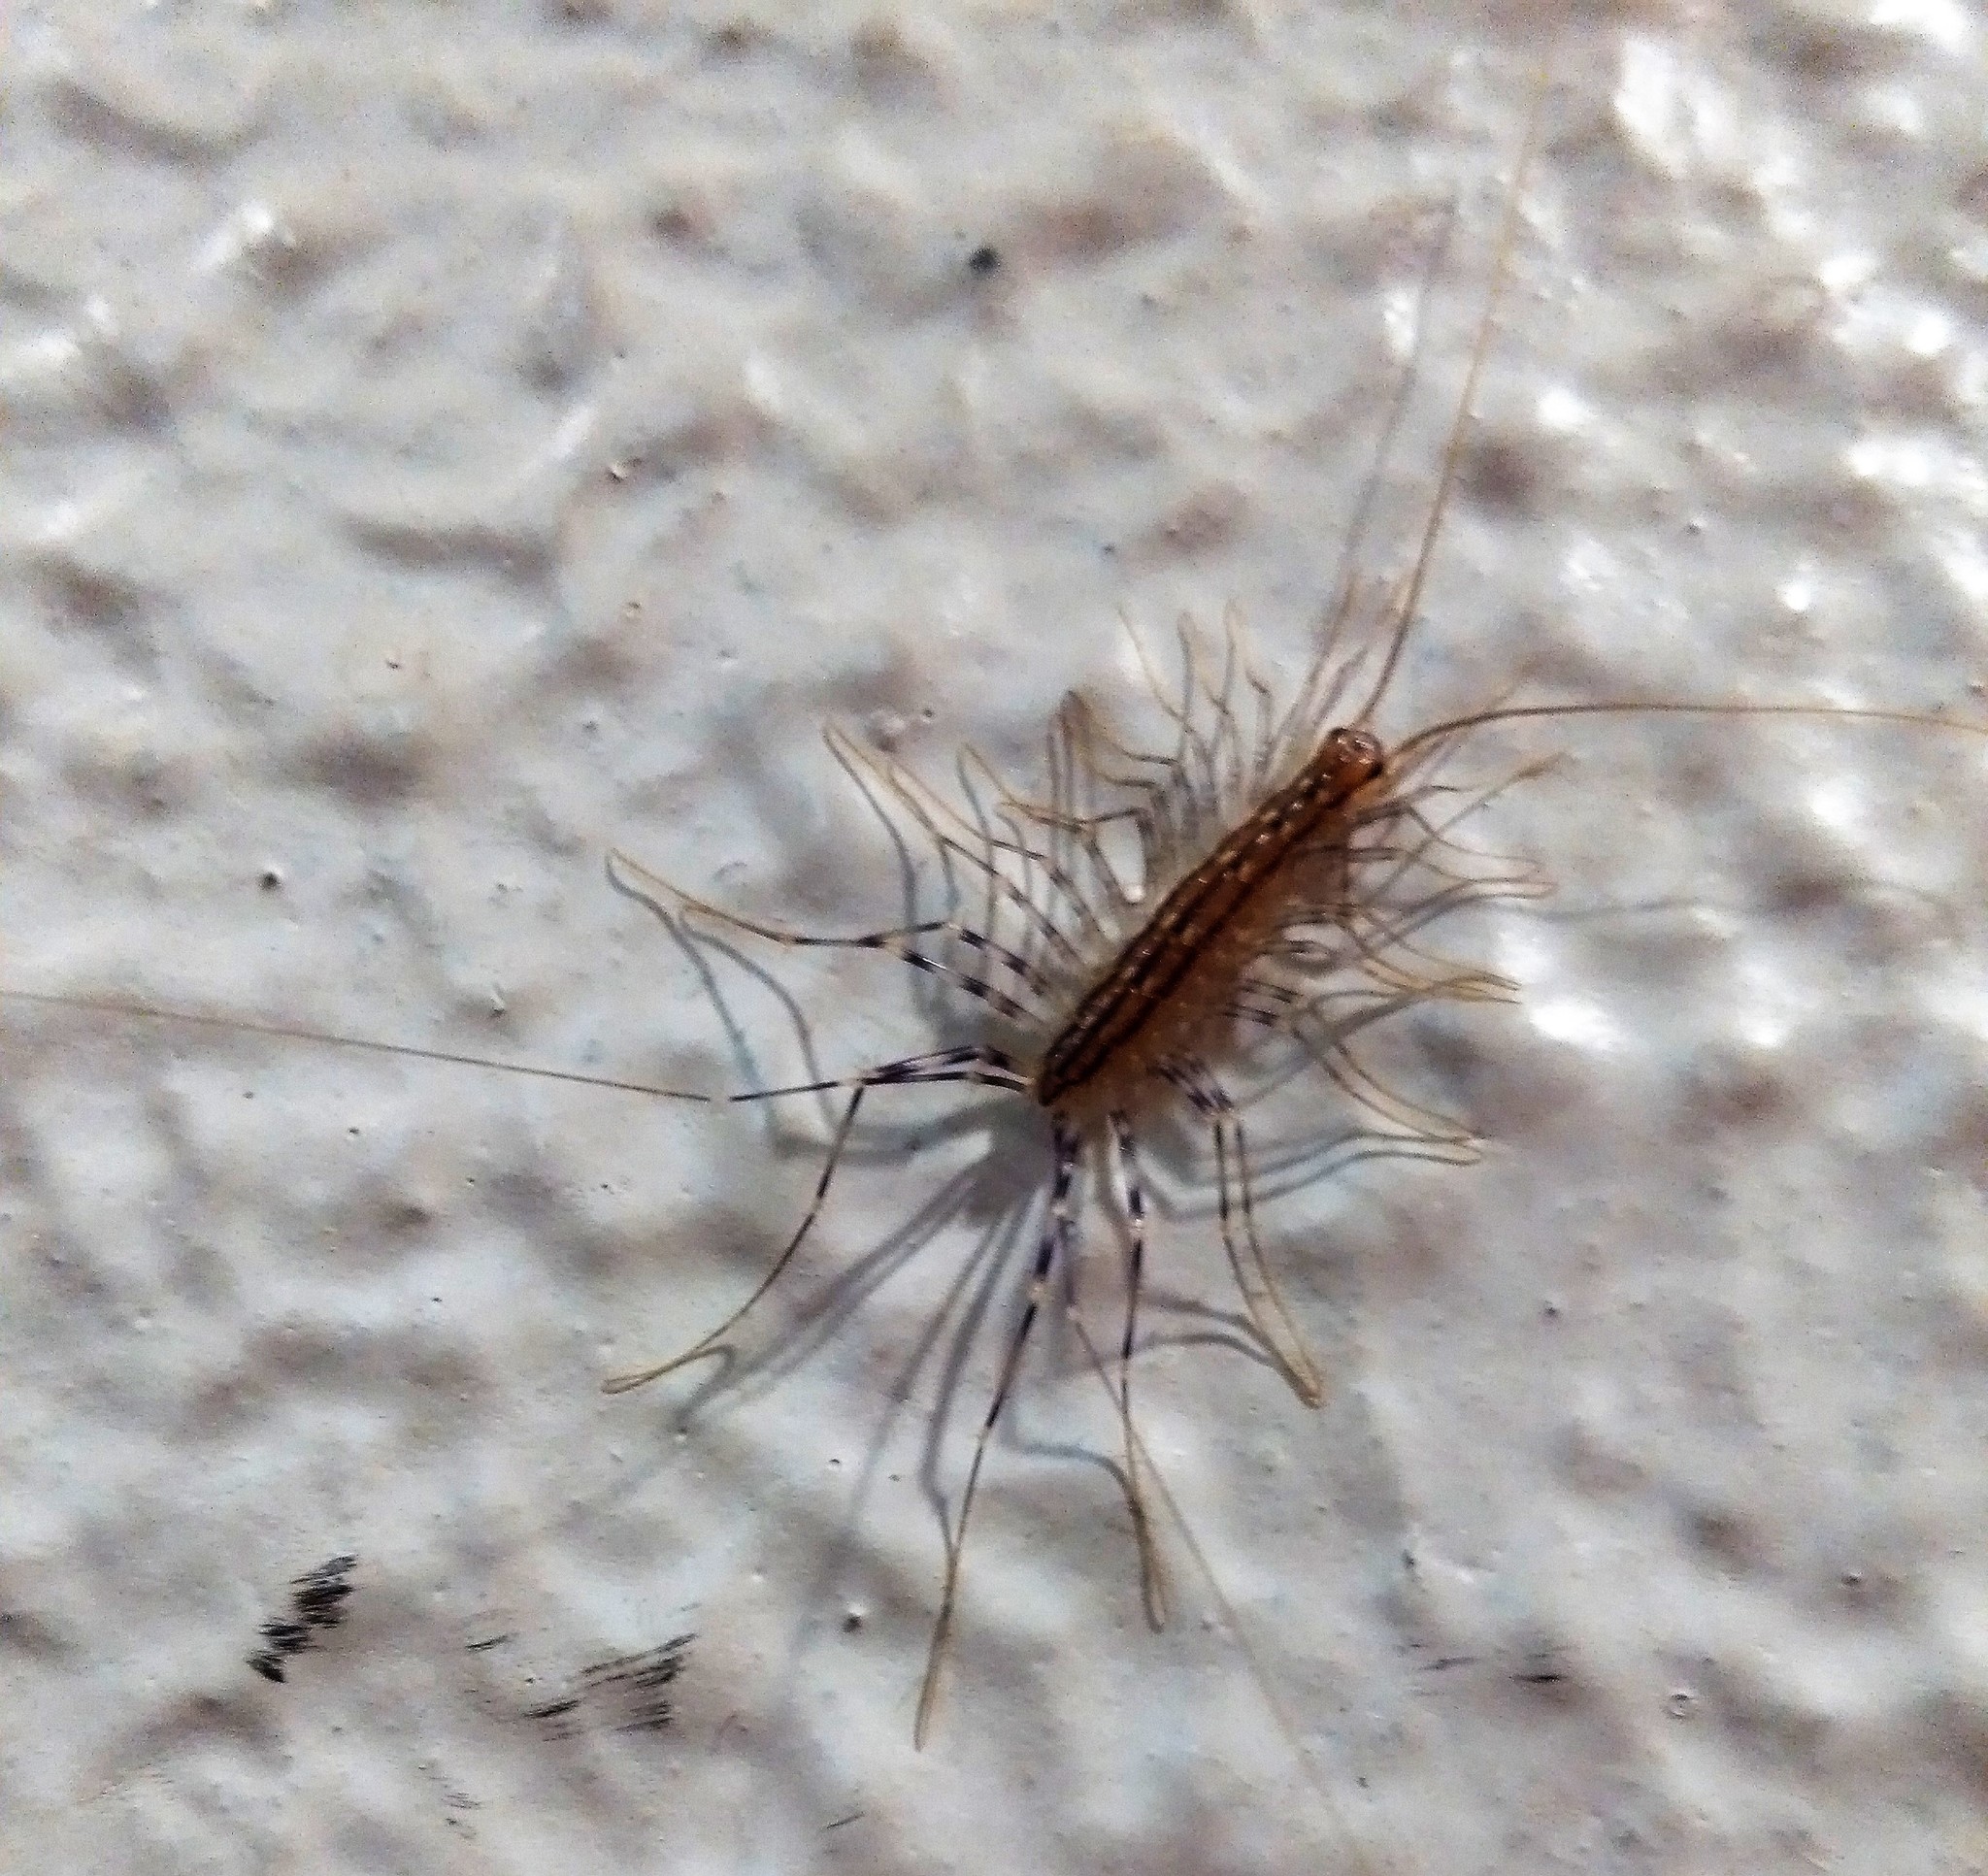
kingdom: Animalia
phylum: Arthropoda
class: Chilopoda
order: Scutigeromorpha
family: Scutigeridae
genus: Scutigera
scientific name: Scutigera coleoptrata
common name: House centipede
